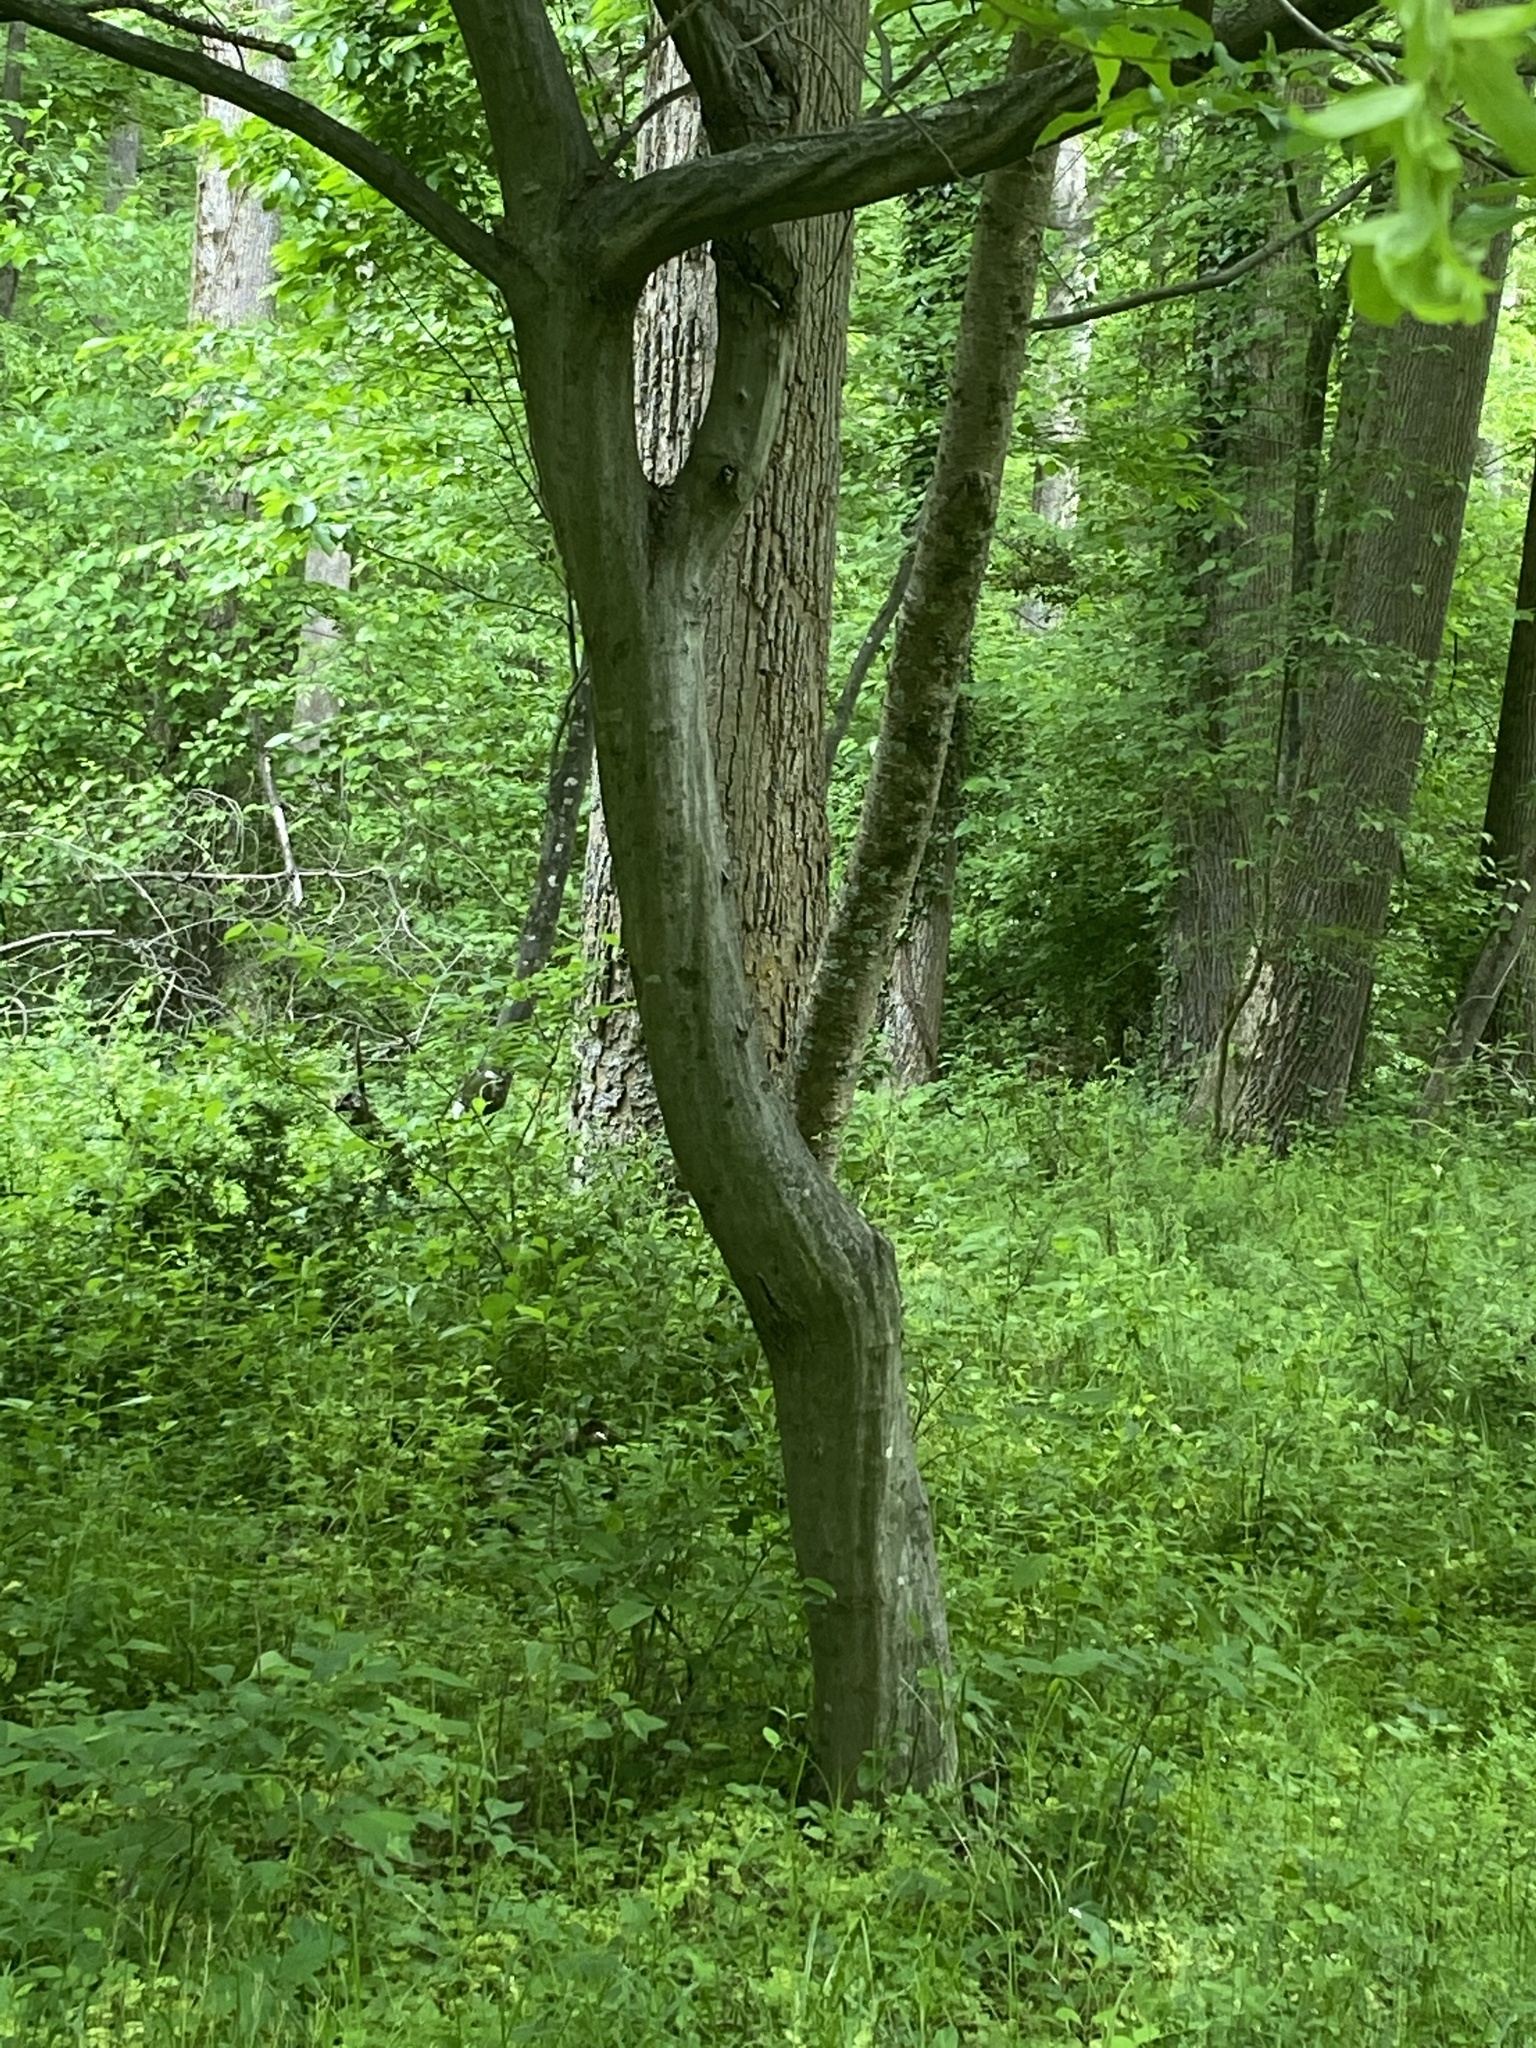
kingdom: Plantae
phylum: Tracheophyta
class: Magnoliopsida
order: Fagales
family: Betulaceae
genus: Carpinus
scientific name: Carpinus caroliniana
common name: American hornbeam
